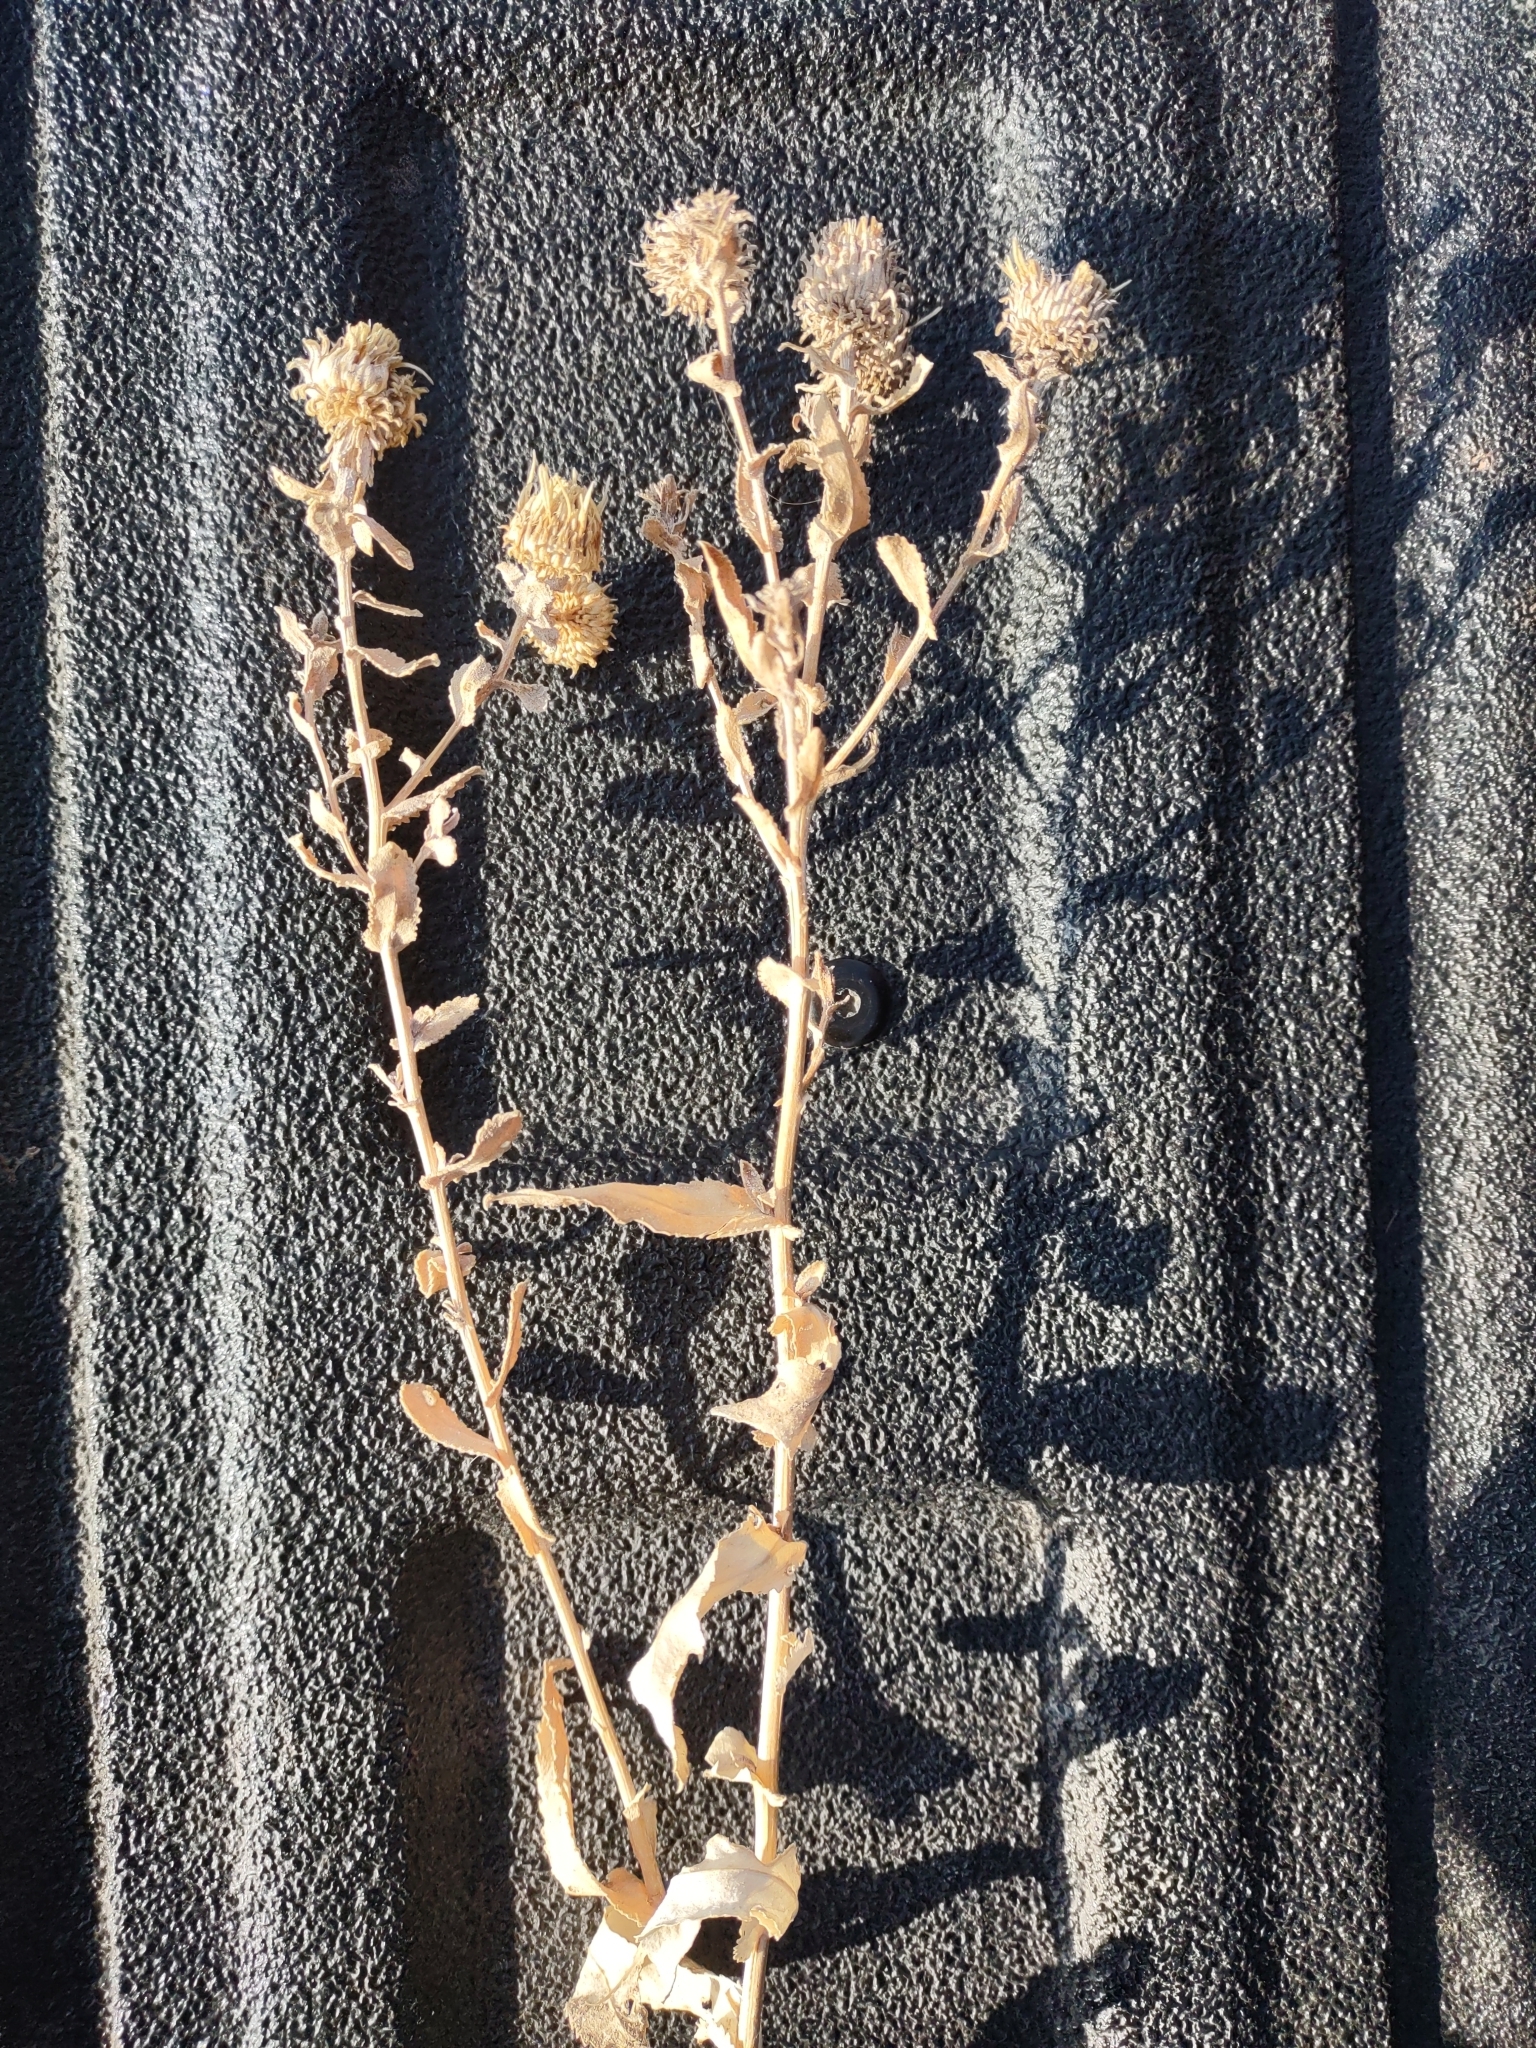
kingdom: Plantae
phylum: Tracheophyta
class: Magnoliopsida
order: Asterales
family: Asteraceae
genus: Grindelia
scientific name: Grindelia squarrosa
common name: Curly-cup gumweed
